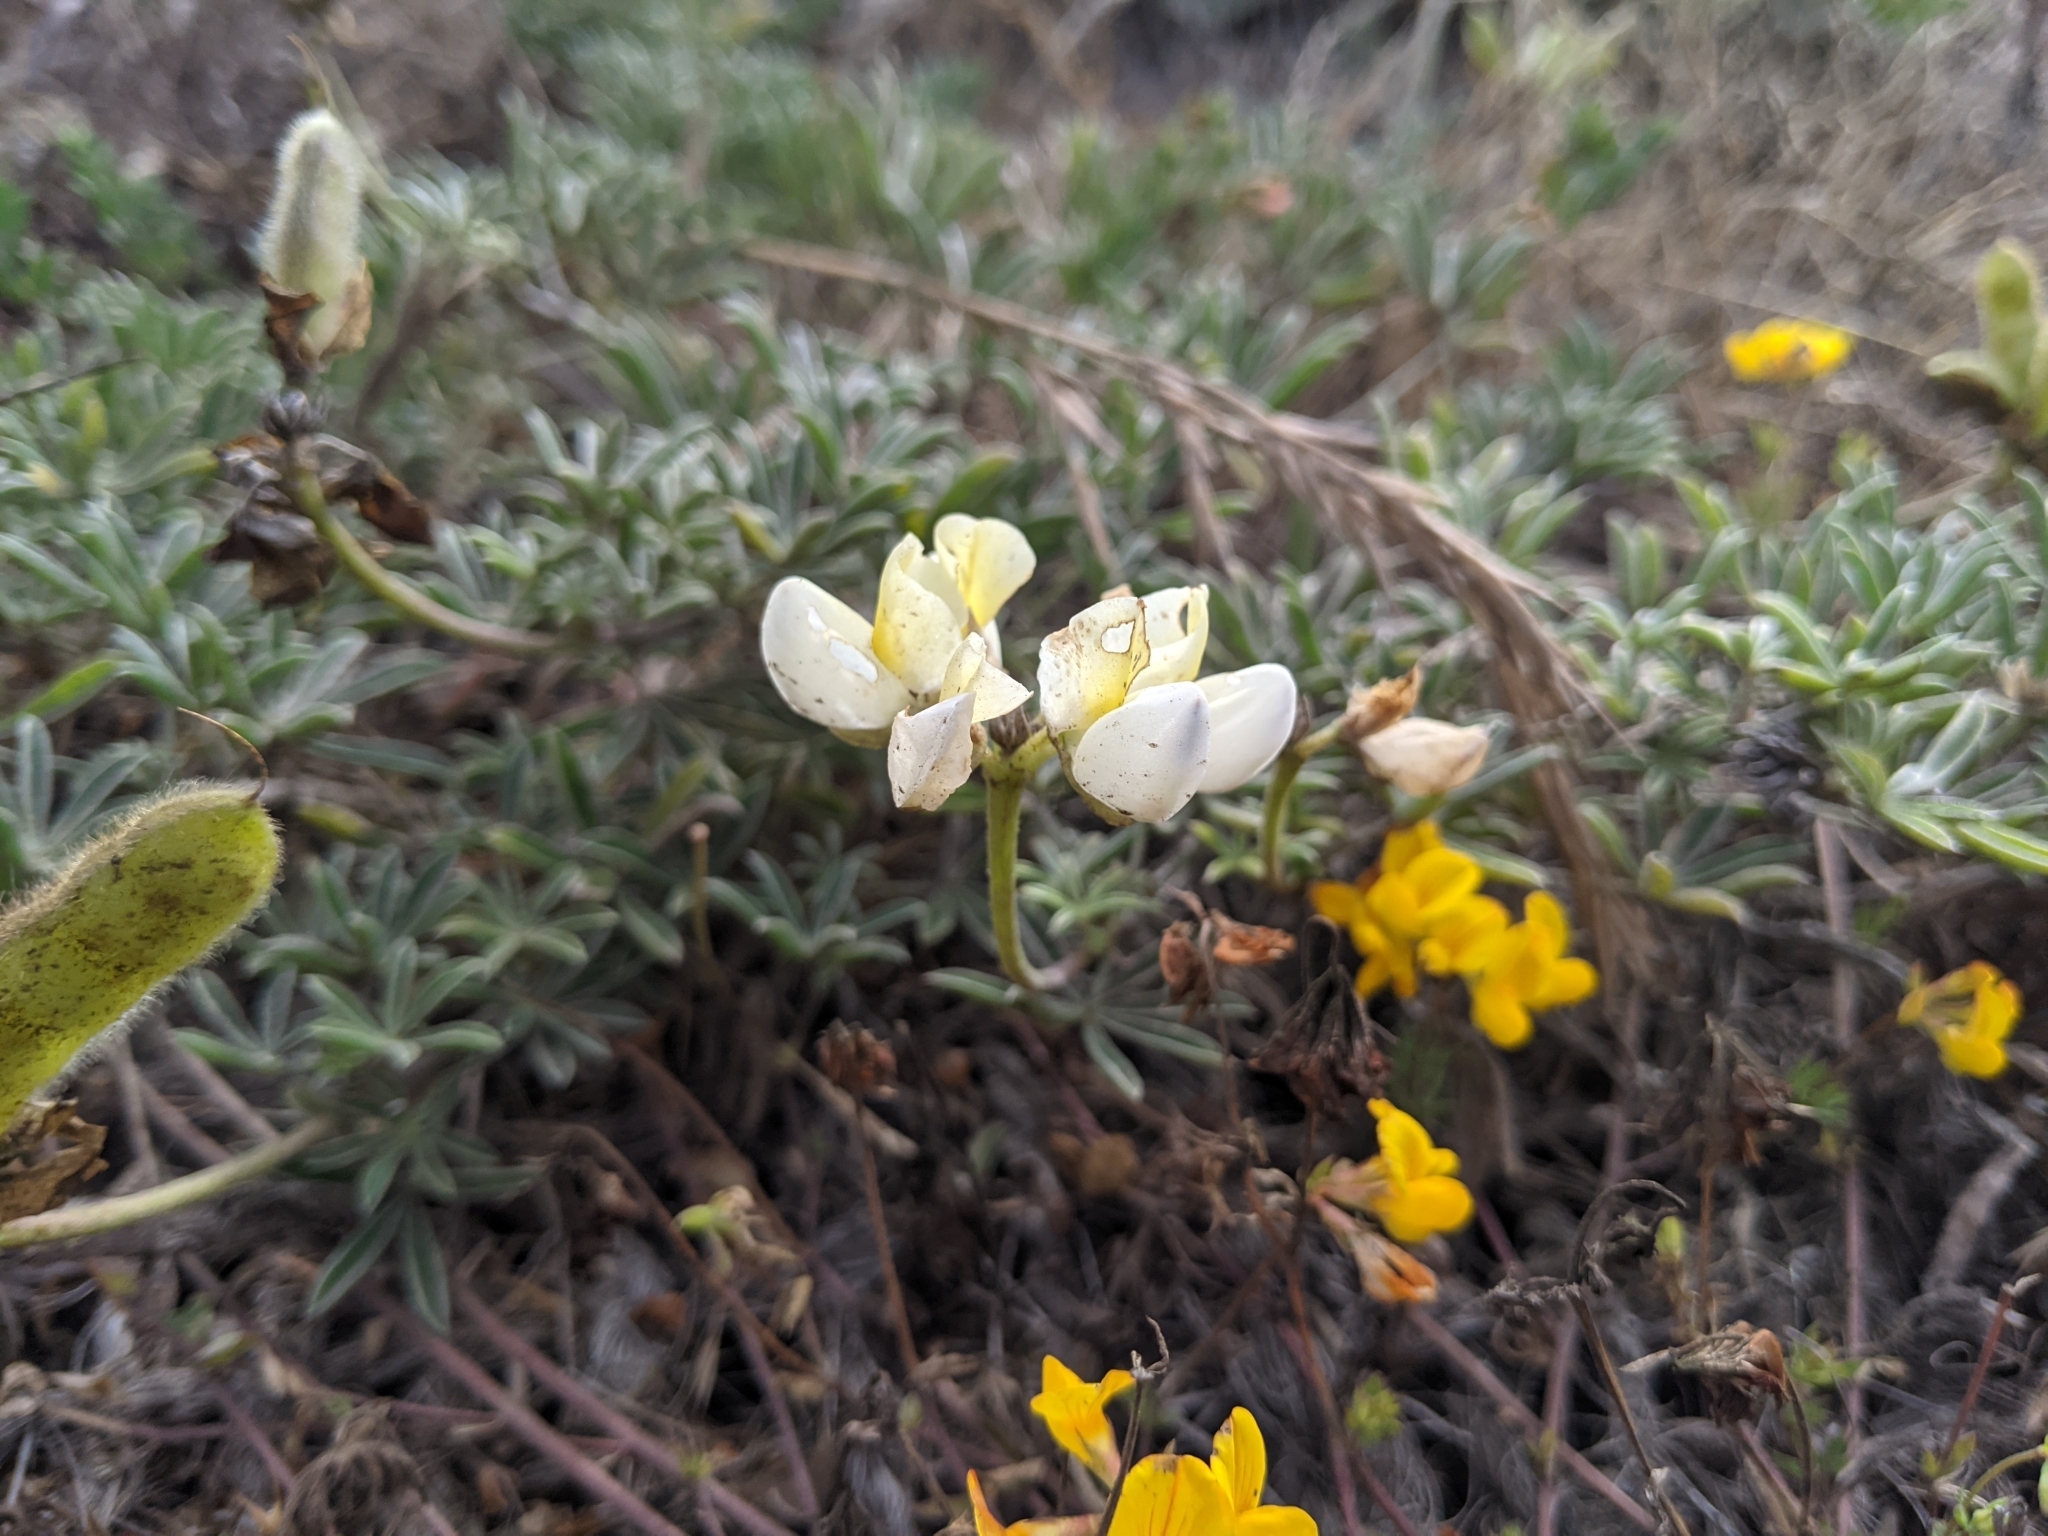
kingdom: Plantae
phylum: Tracheophyta
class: Magnoliopsida
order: Fabales
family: Fabaceae
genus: Lupinus
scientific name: Lupinus variicolor
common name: Lindley's varied lupine
